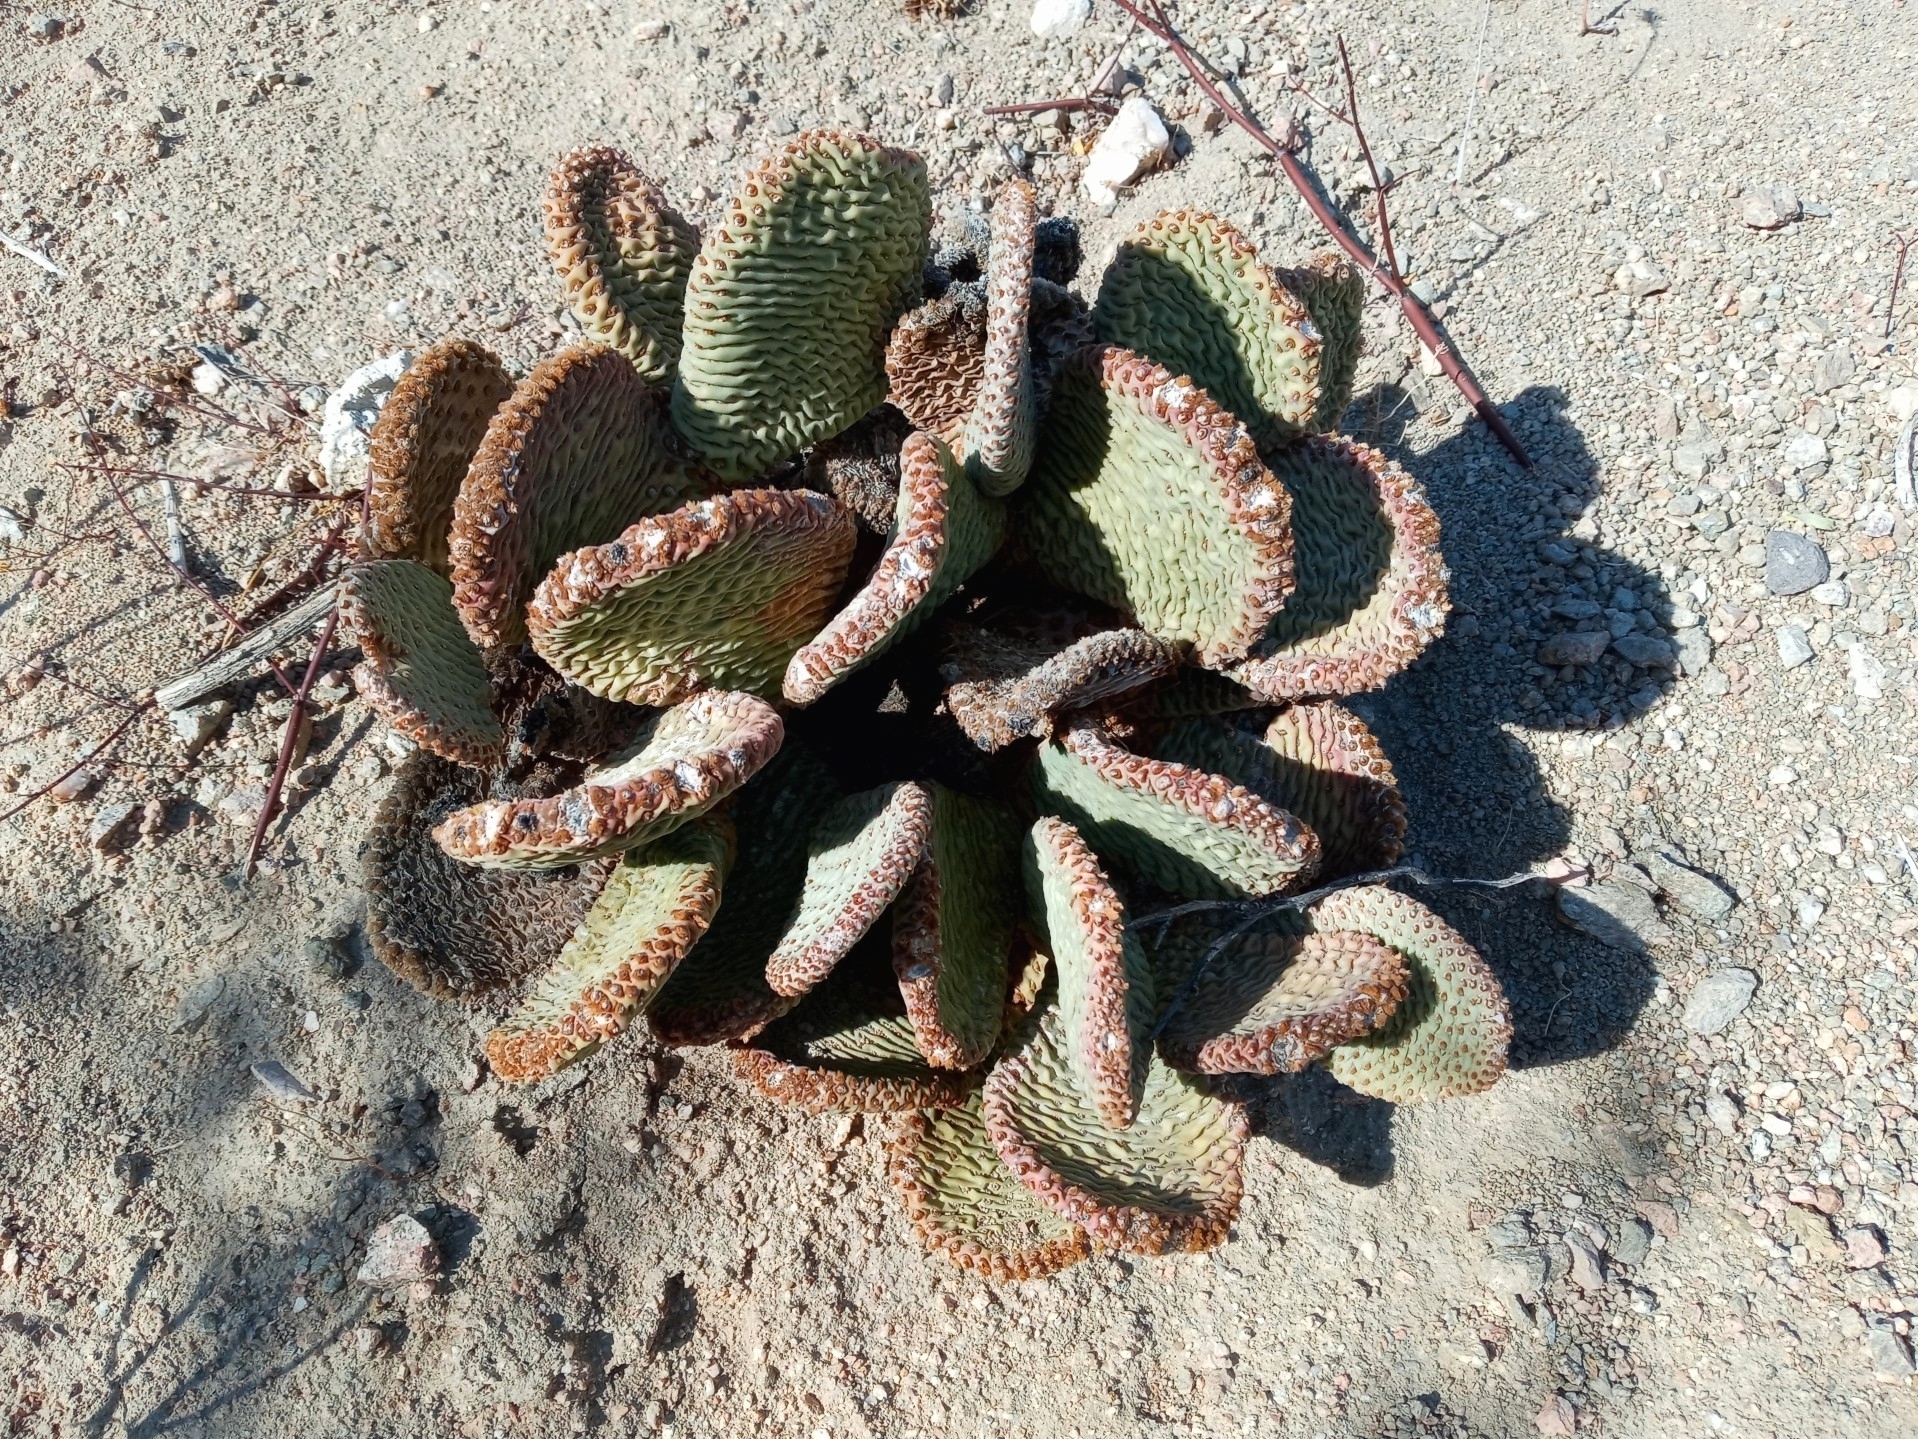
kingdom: Plantae
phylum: Tracheophyta
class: Magnoliopsida
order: Caryophyllales
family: Cactaceae
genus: Opuntia
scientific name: Opuntia basilaris
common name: Beavertail prickly-pear
